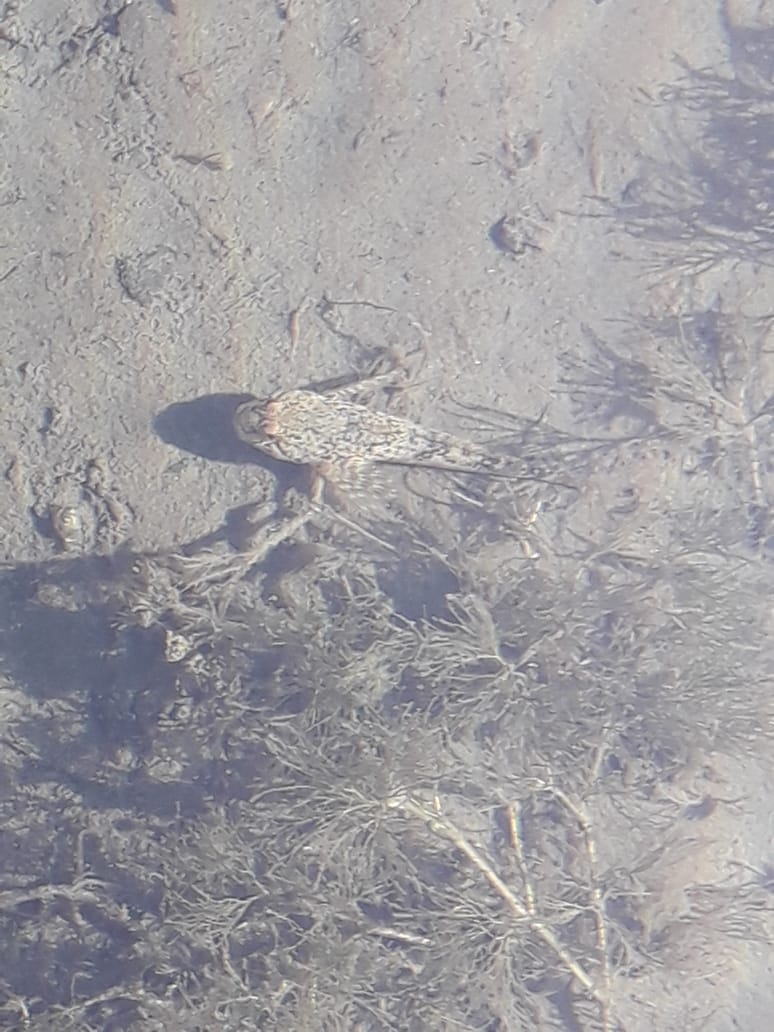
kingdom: Animalia
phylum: Chordata
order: Scorpaeniformes
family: Cottidae
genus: Cottus
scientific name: Cottus altaicus
